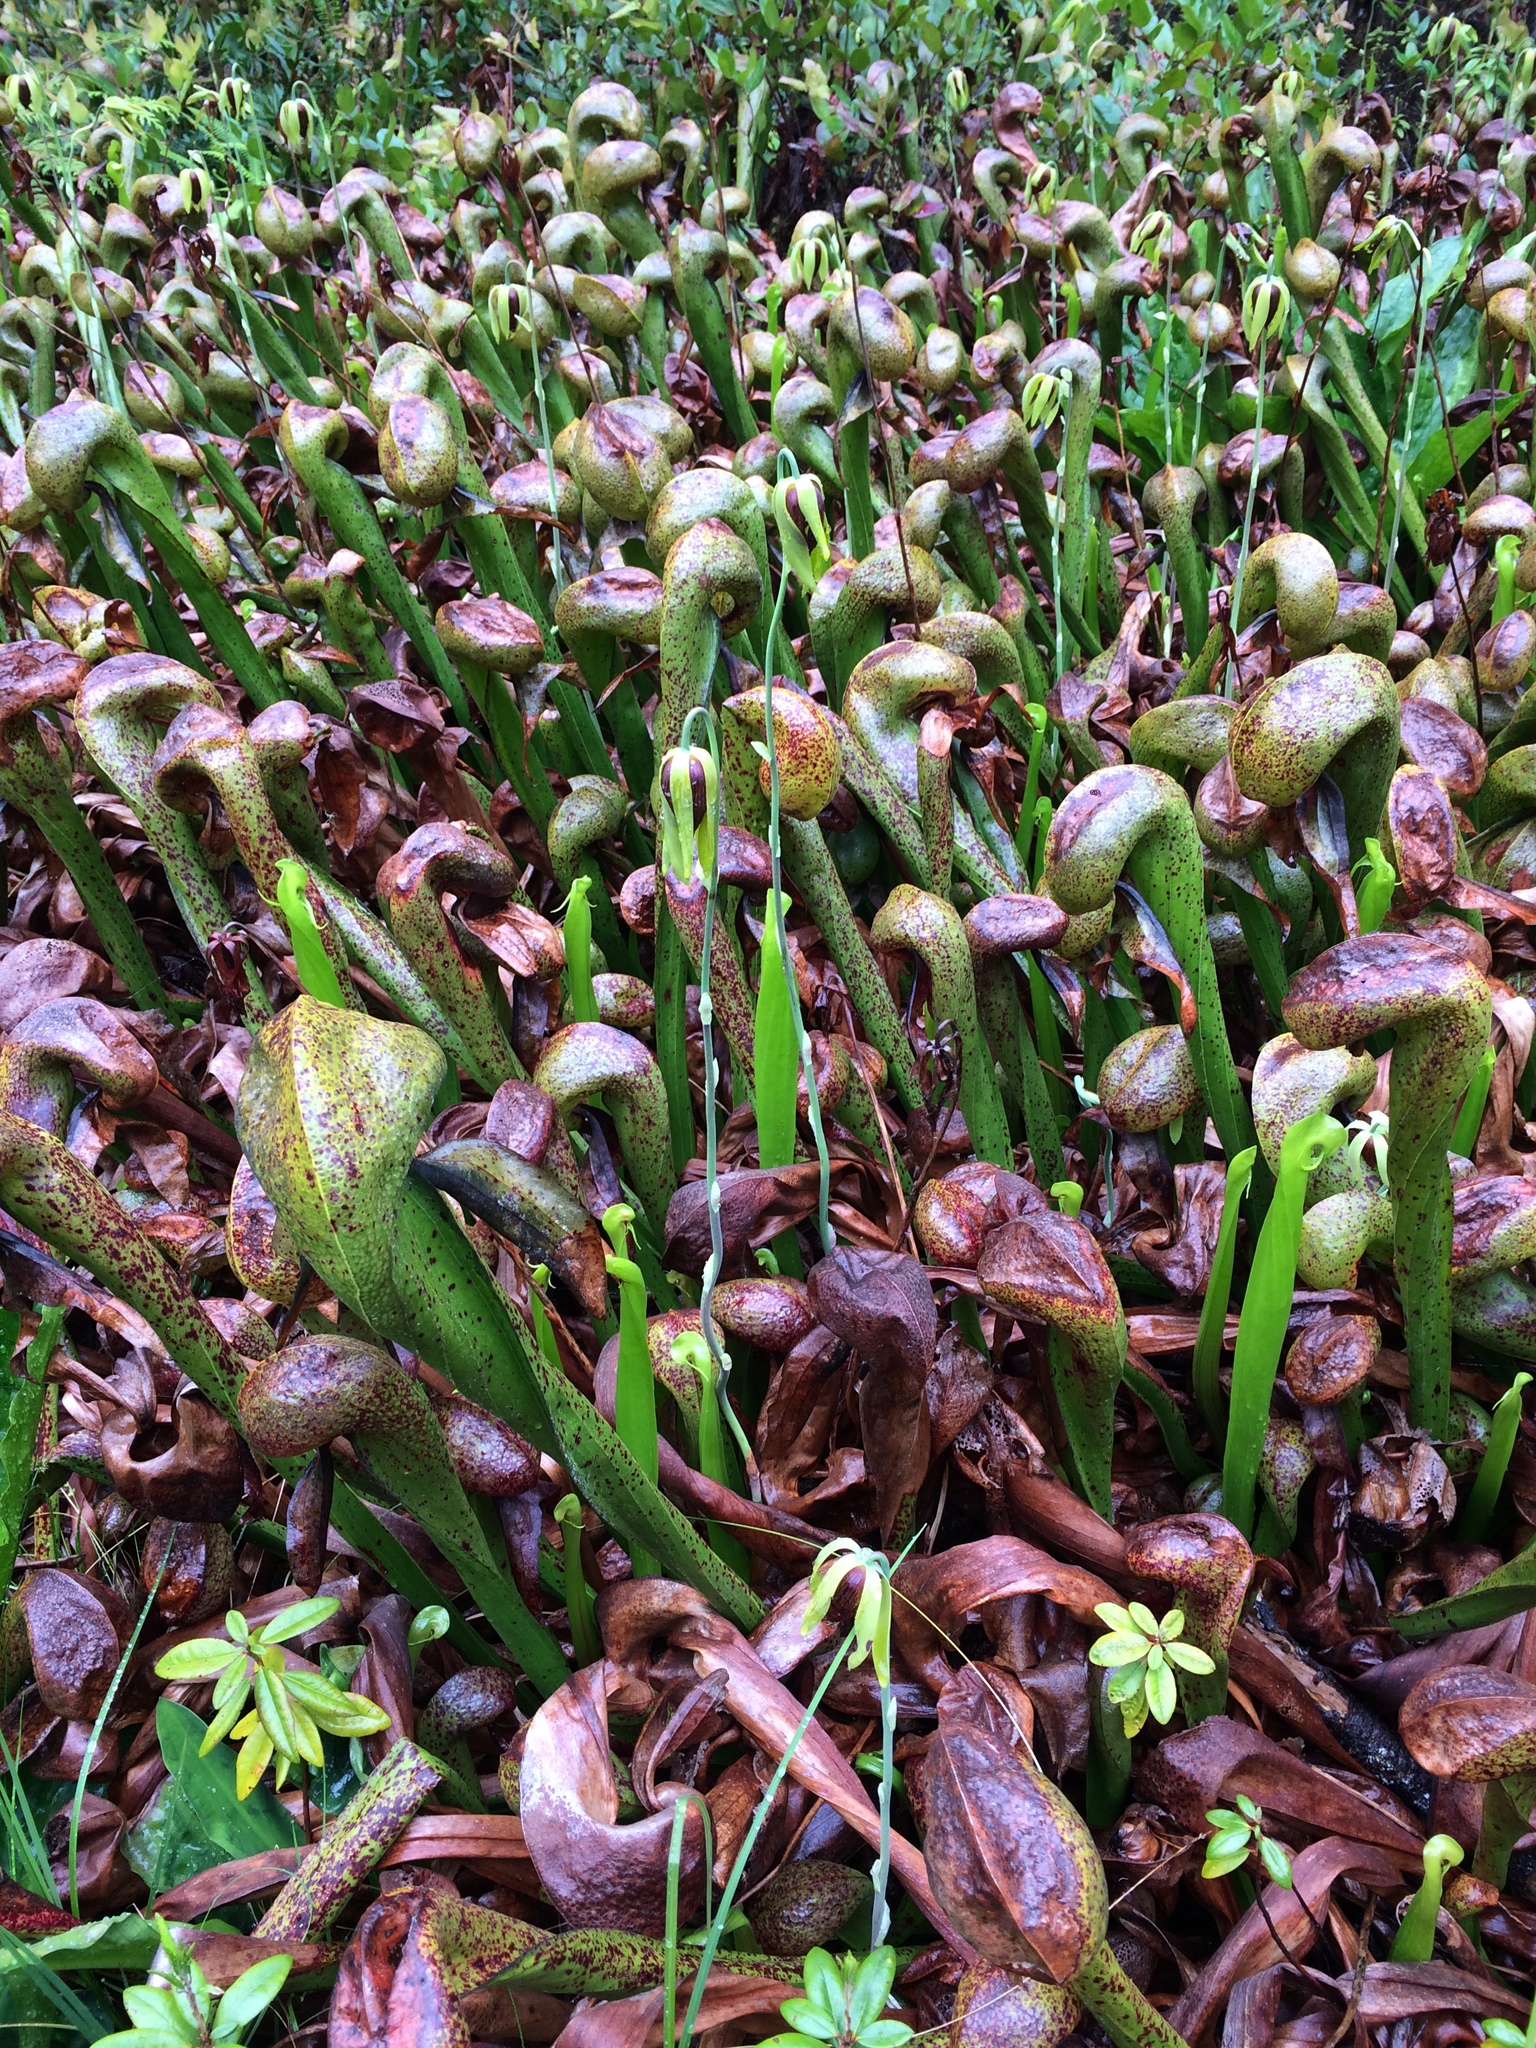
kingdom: Plantae
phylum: Tracheophyta
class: Magnoliopsida
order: Ericales
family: Sarraceniaceae
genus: Darlingtonia
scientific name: Darlingtonia californica
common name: California pitcher plant
